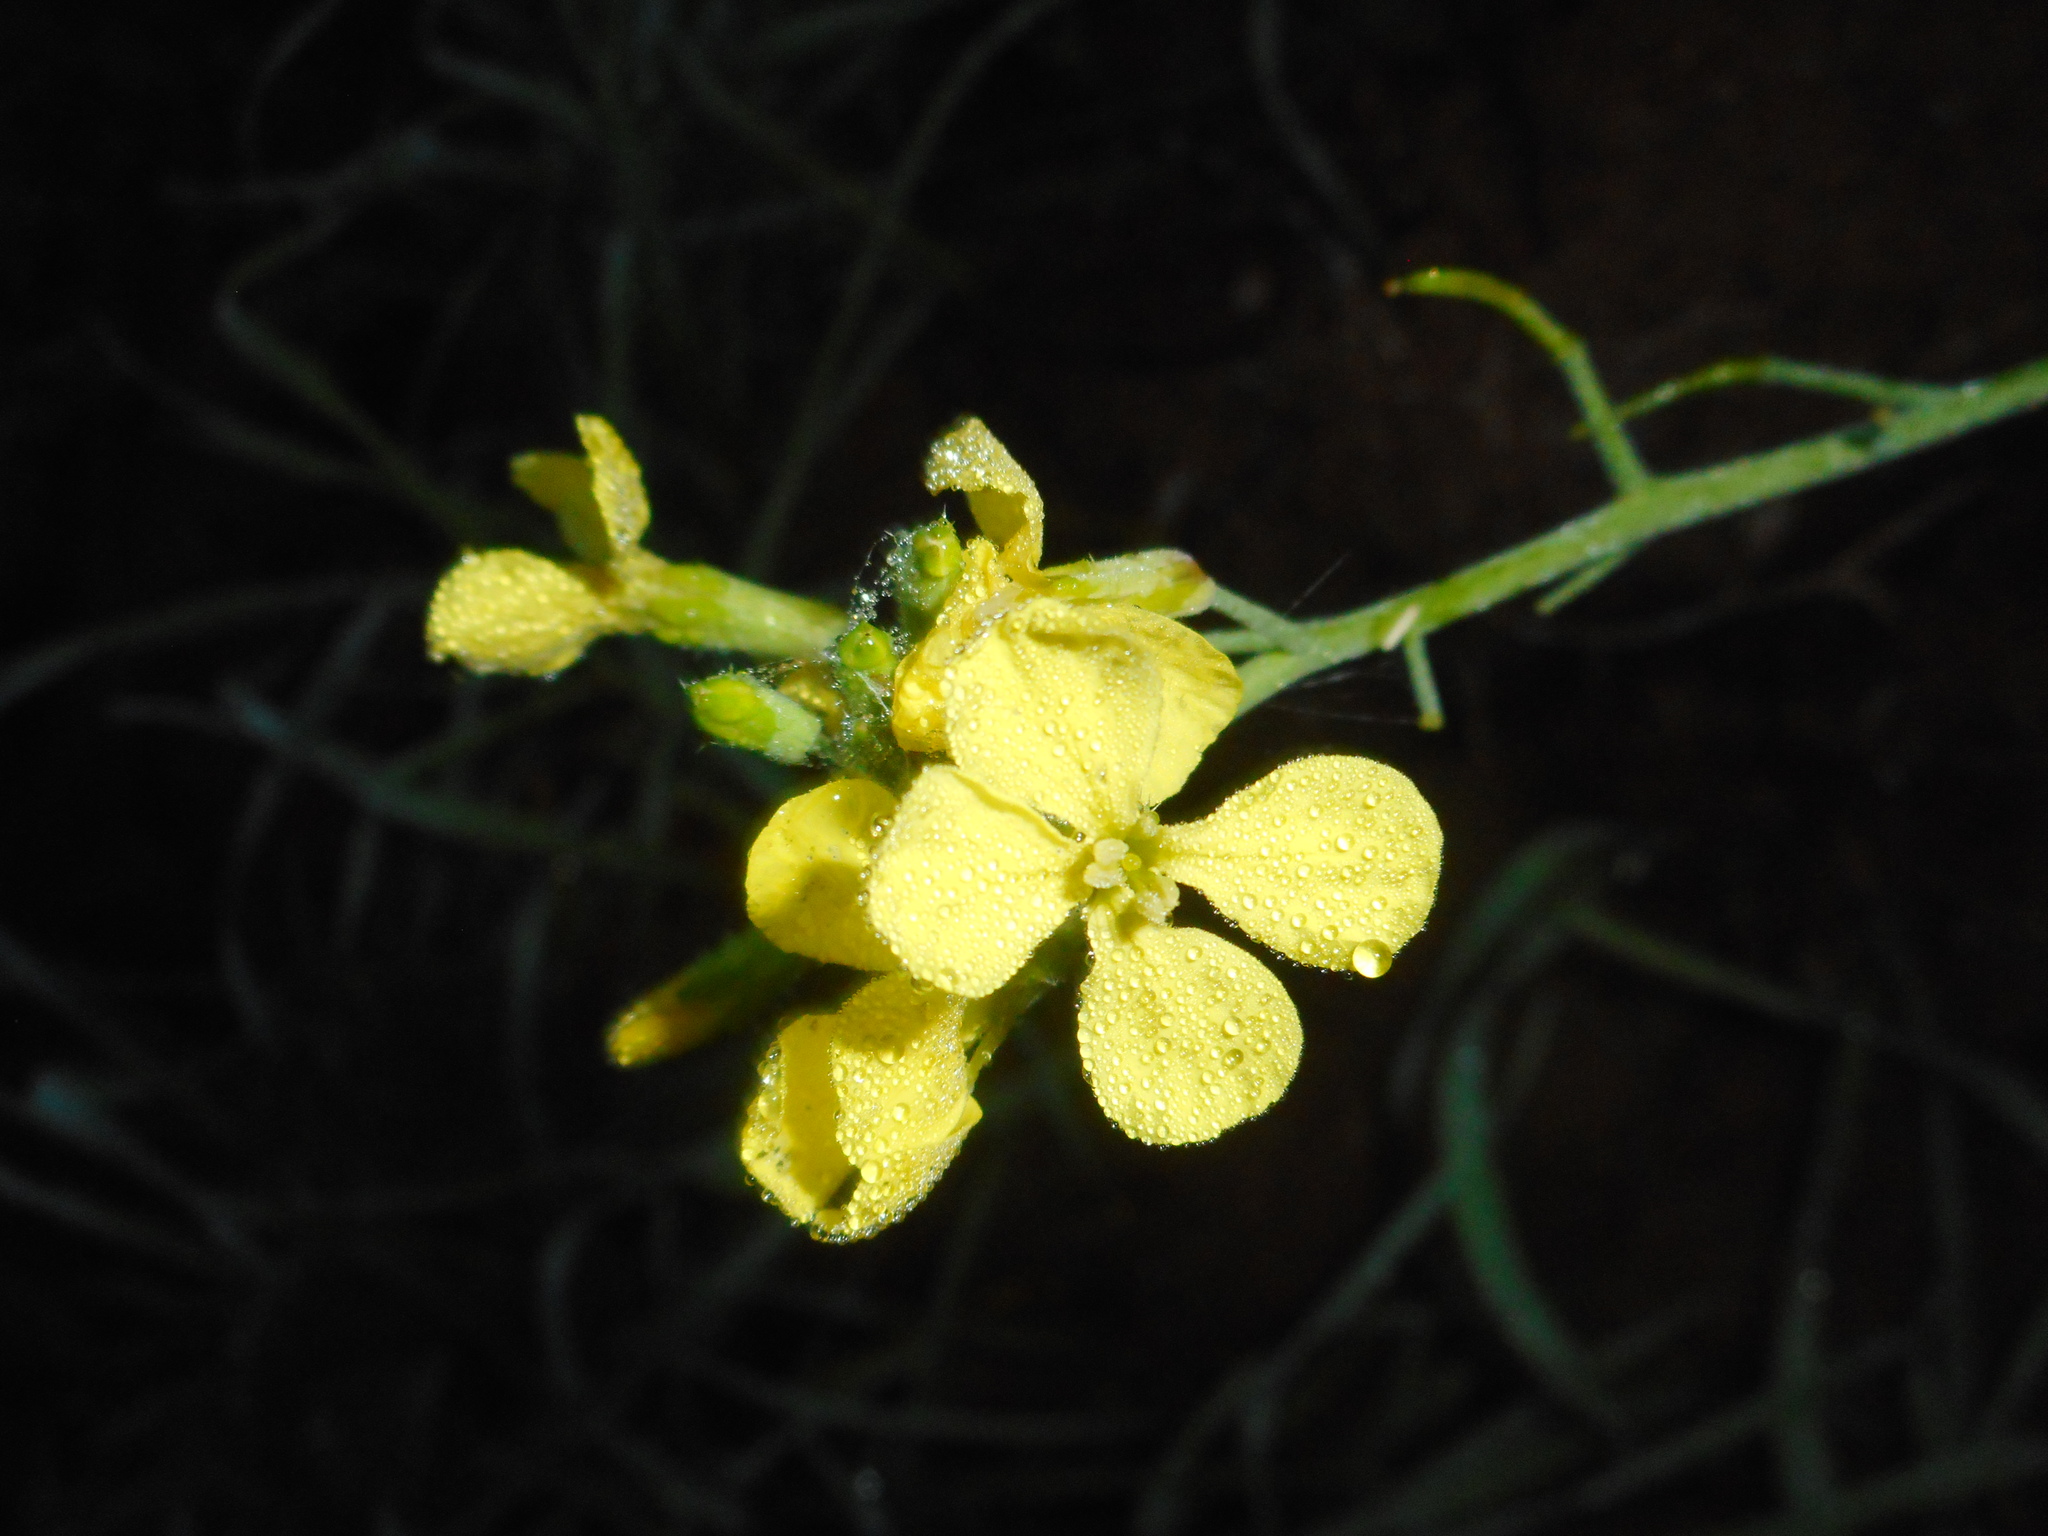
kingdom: Plantae
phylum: Tracheophyta
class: Magnoliopsida
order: Brassicales
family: Brassicaceae
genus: Raphanus
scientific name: Raphanus raphanistrum
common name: Wild radish
